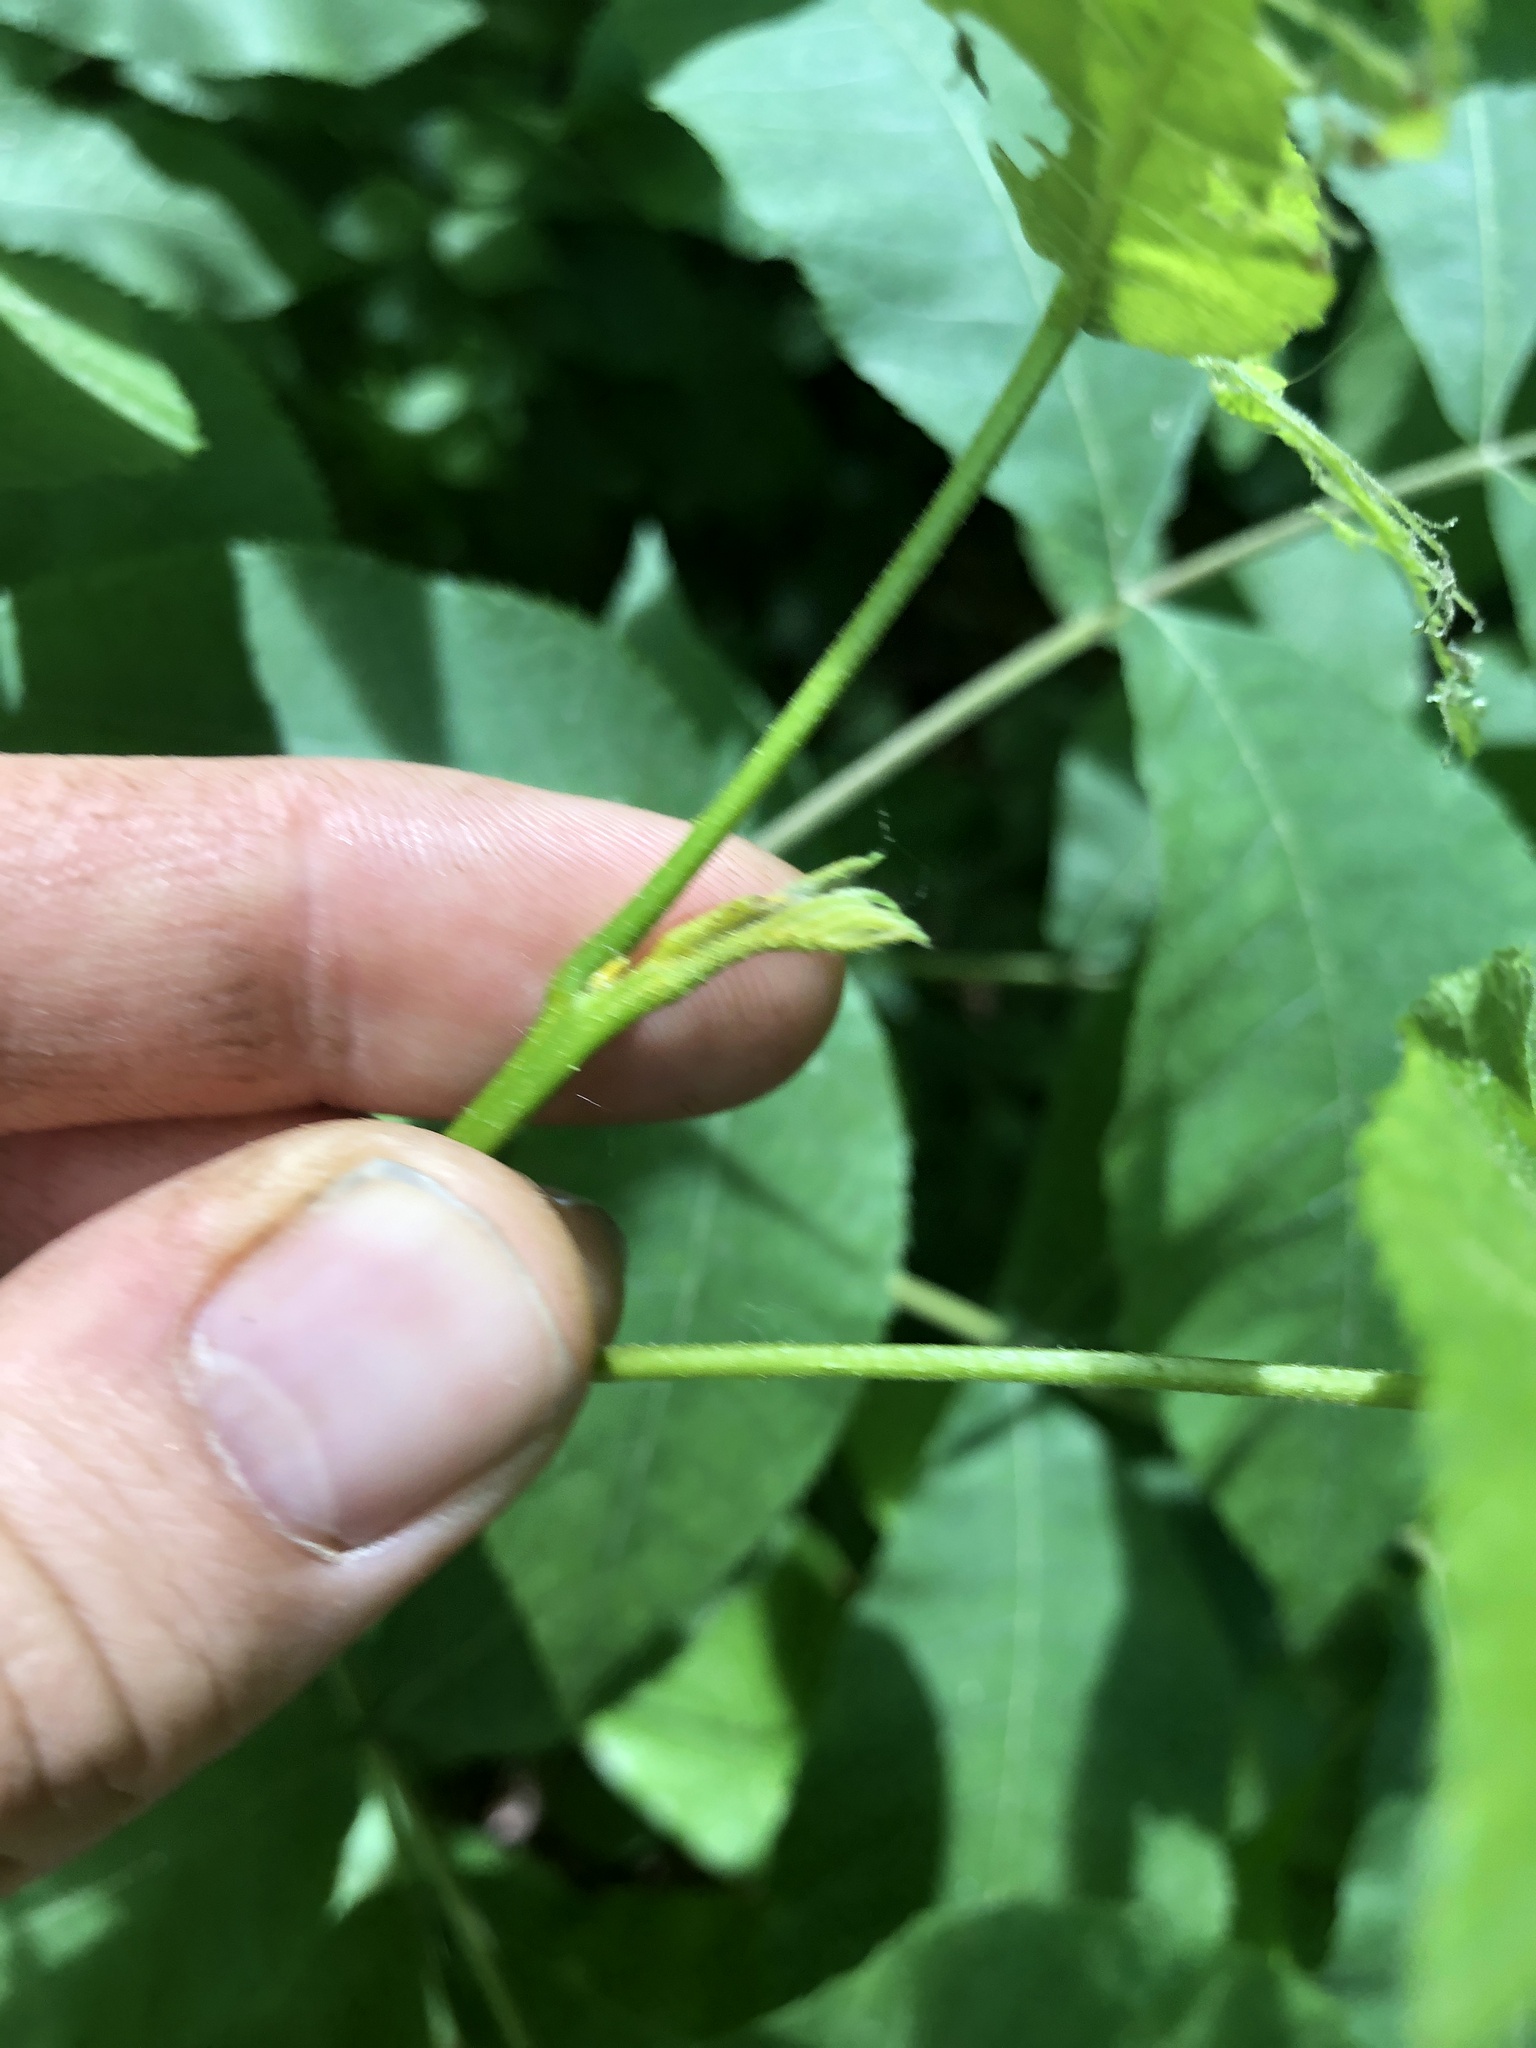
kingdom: Plantae
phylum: Tracheophyta
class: Magnoliopsida
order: Fagales
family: Juglandaceae
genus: Carya
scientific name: Carya cordiformis
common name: Bitternut hickory
